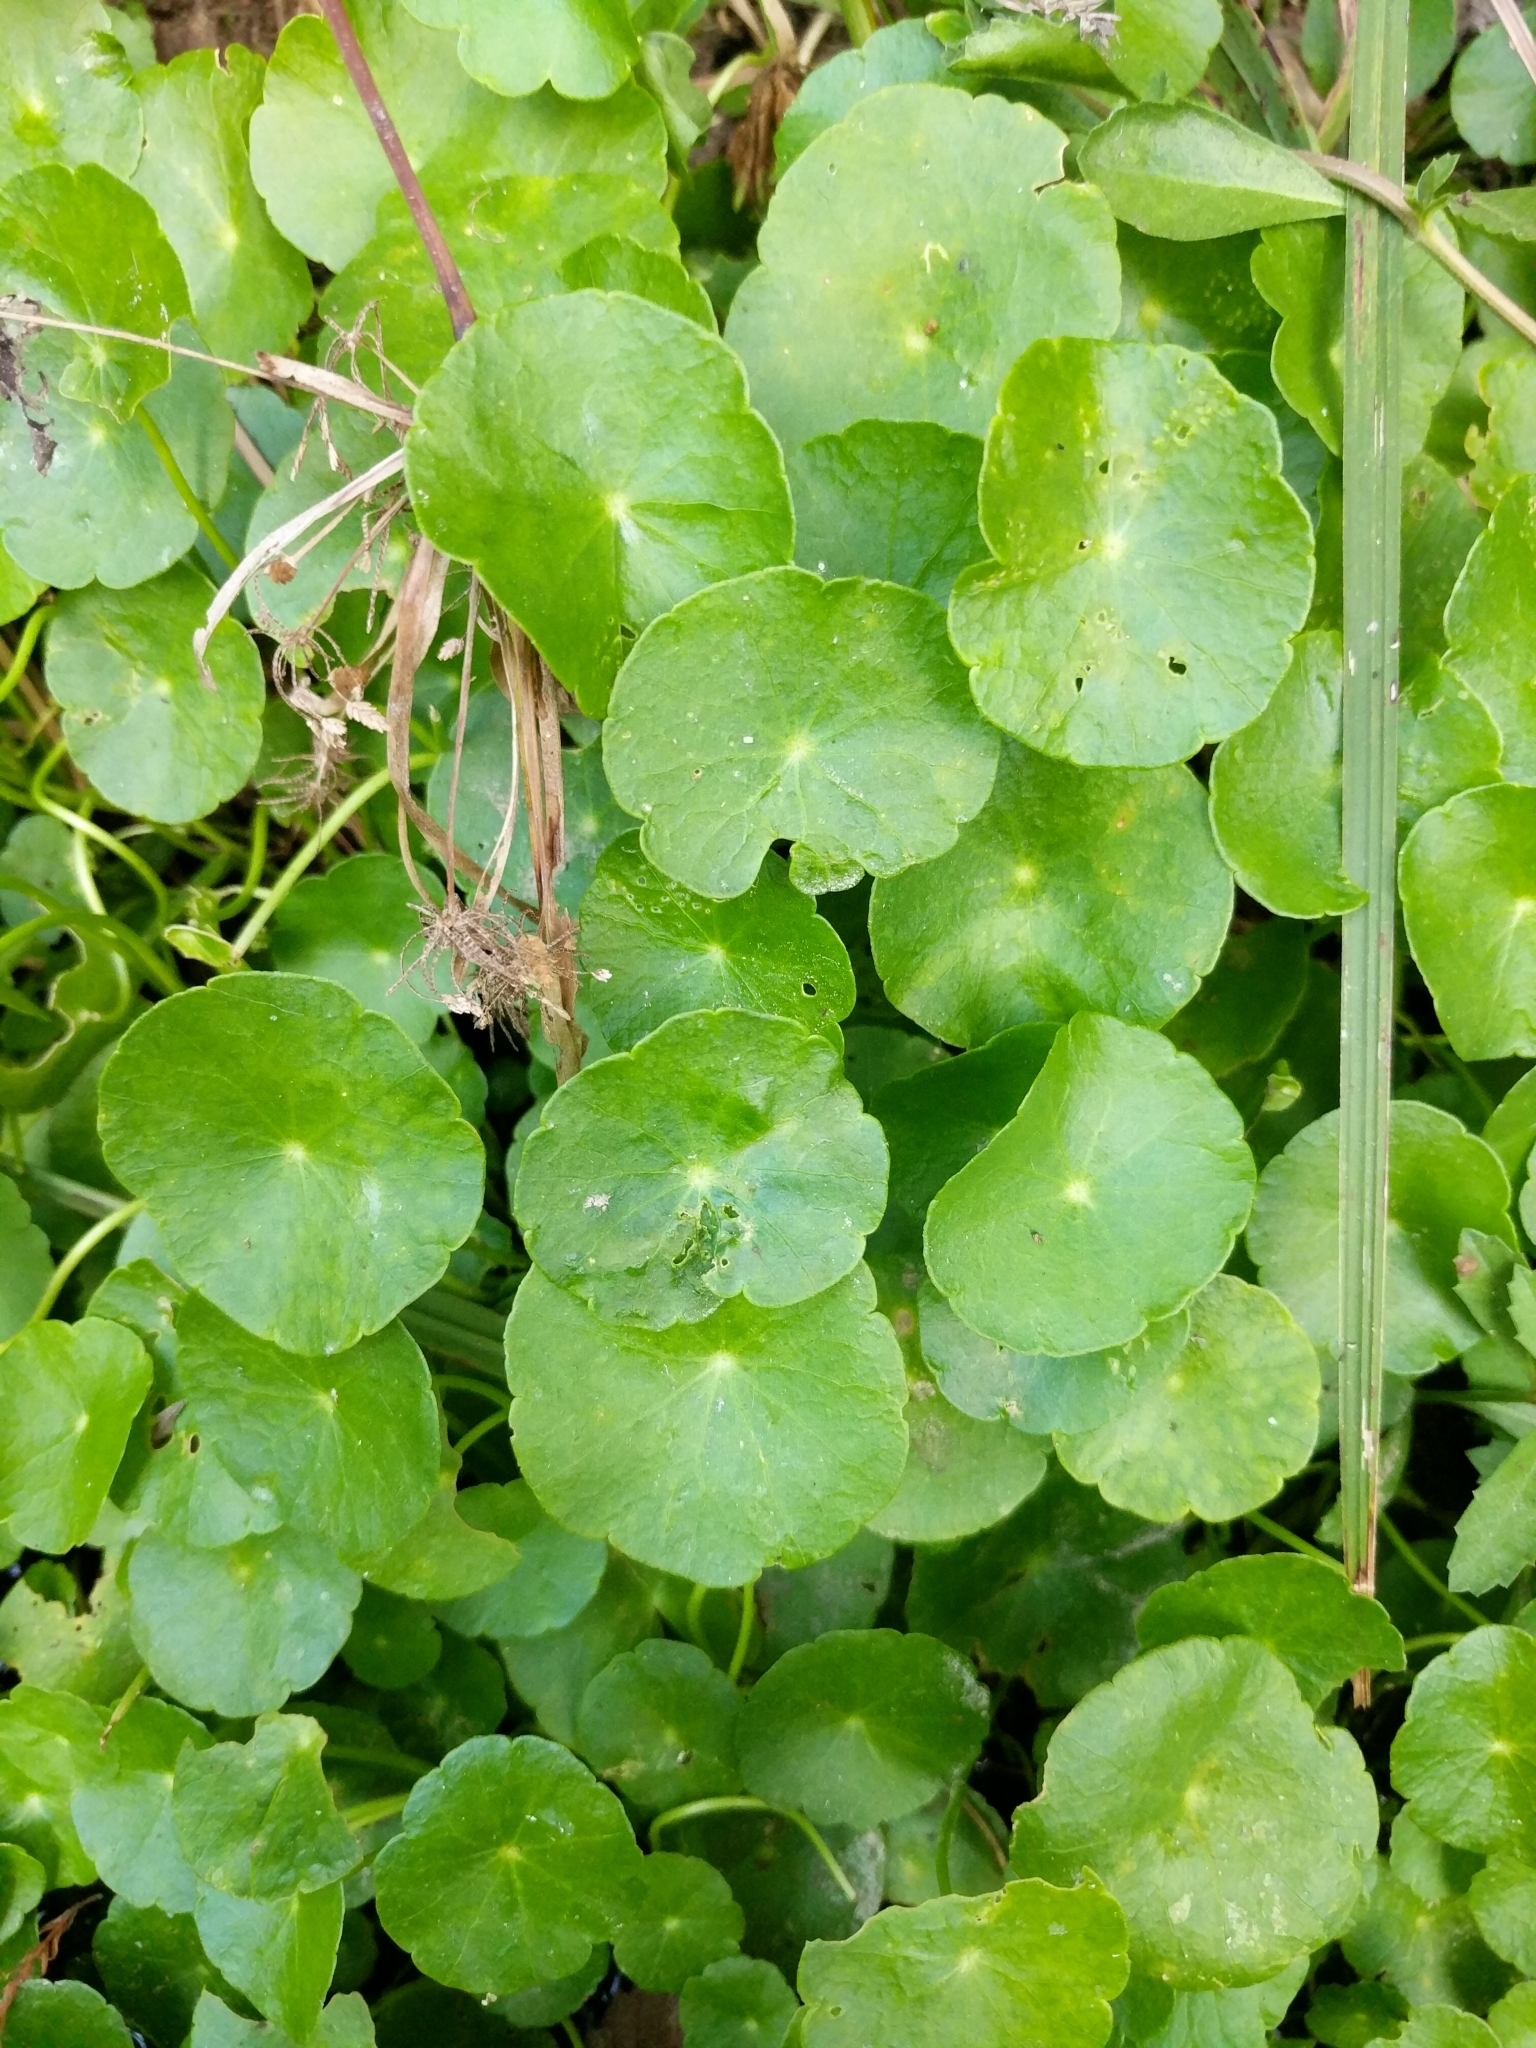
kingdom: Plantae
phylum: Tracheophyta
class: Magnoliopsida
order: Apiales
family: Araliaceae
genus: Hydrocotyle
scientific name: Hydrocotyle verticillata
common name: Whorled marshpennywort
